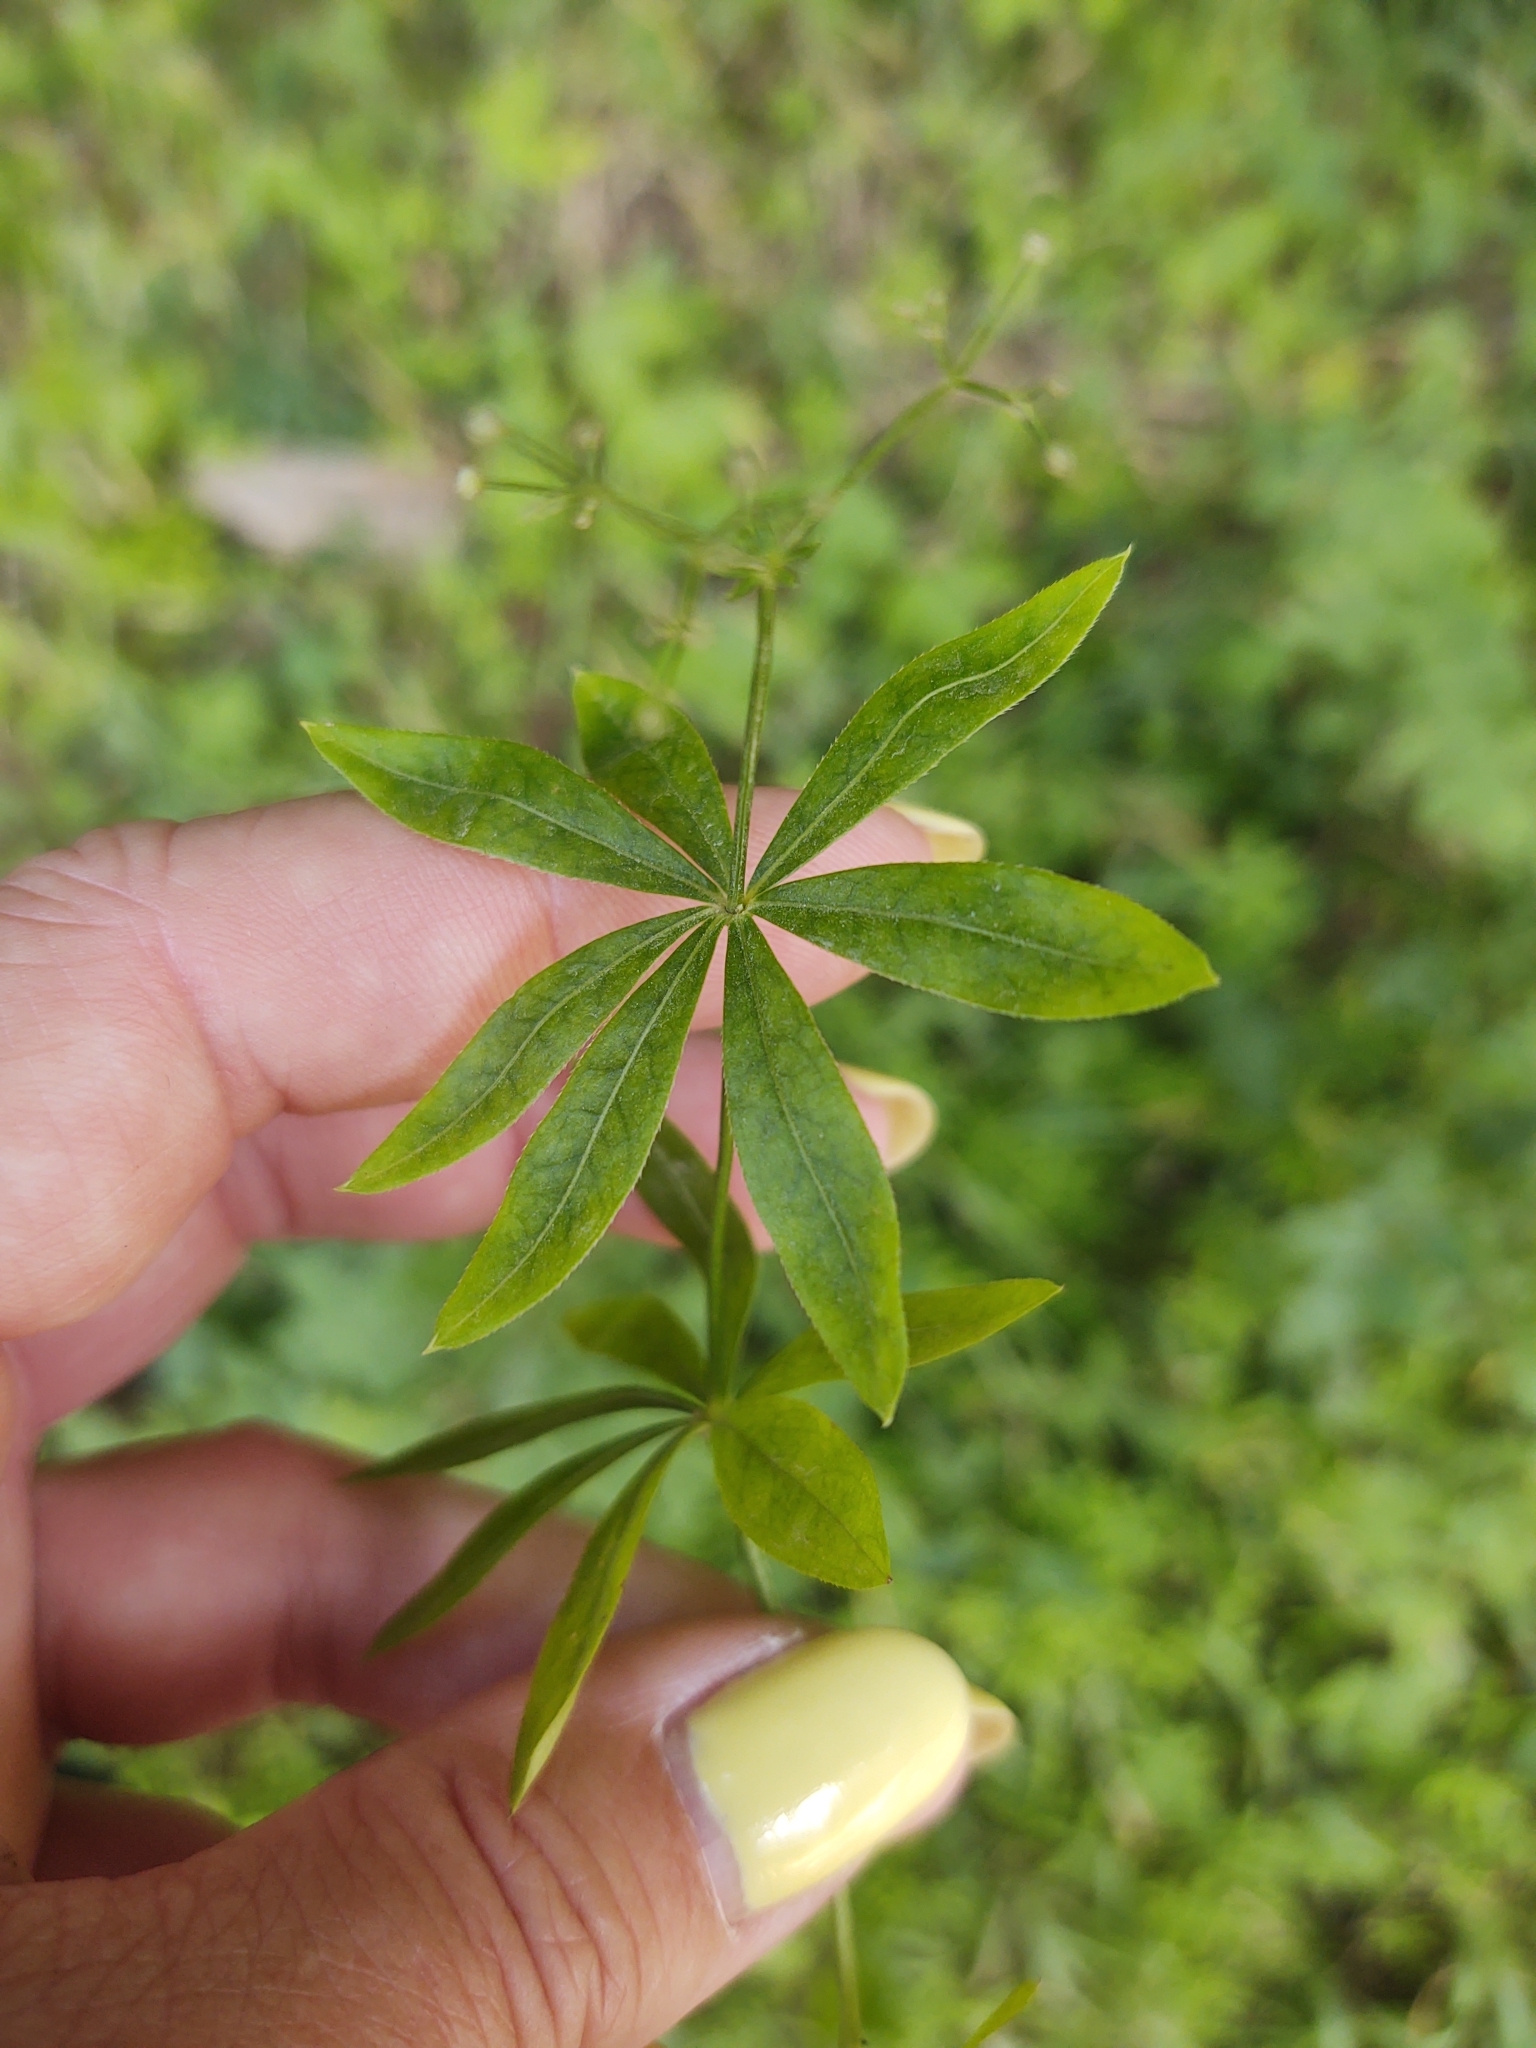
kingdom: Plantae
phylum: Tracheophyta
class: Magnoliopsida
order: Gentianales
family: Rubiaceae
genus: Galium
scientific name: Galium odoratum
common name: Sweet woodruff
